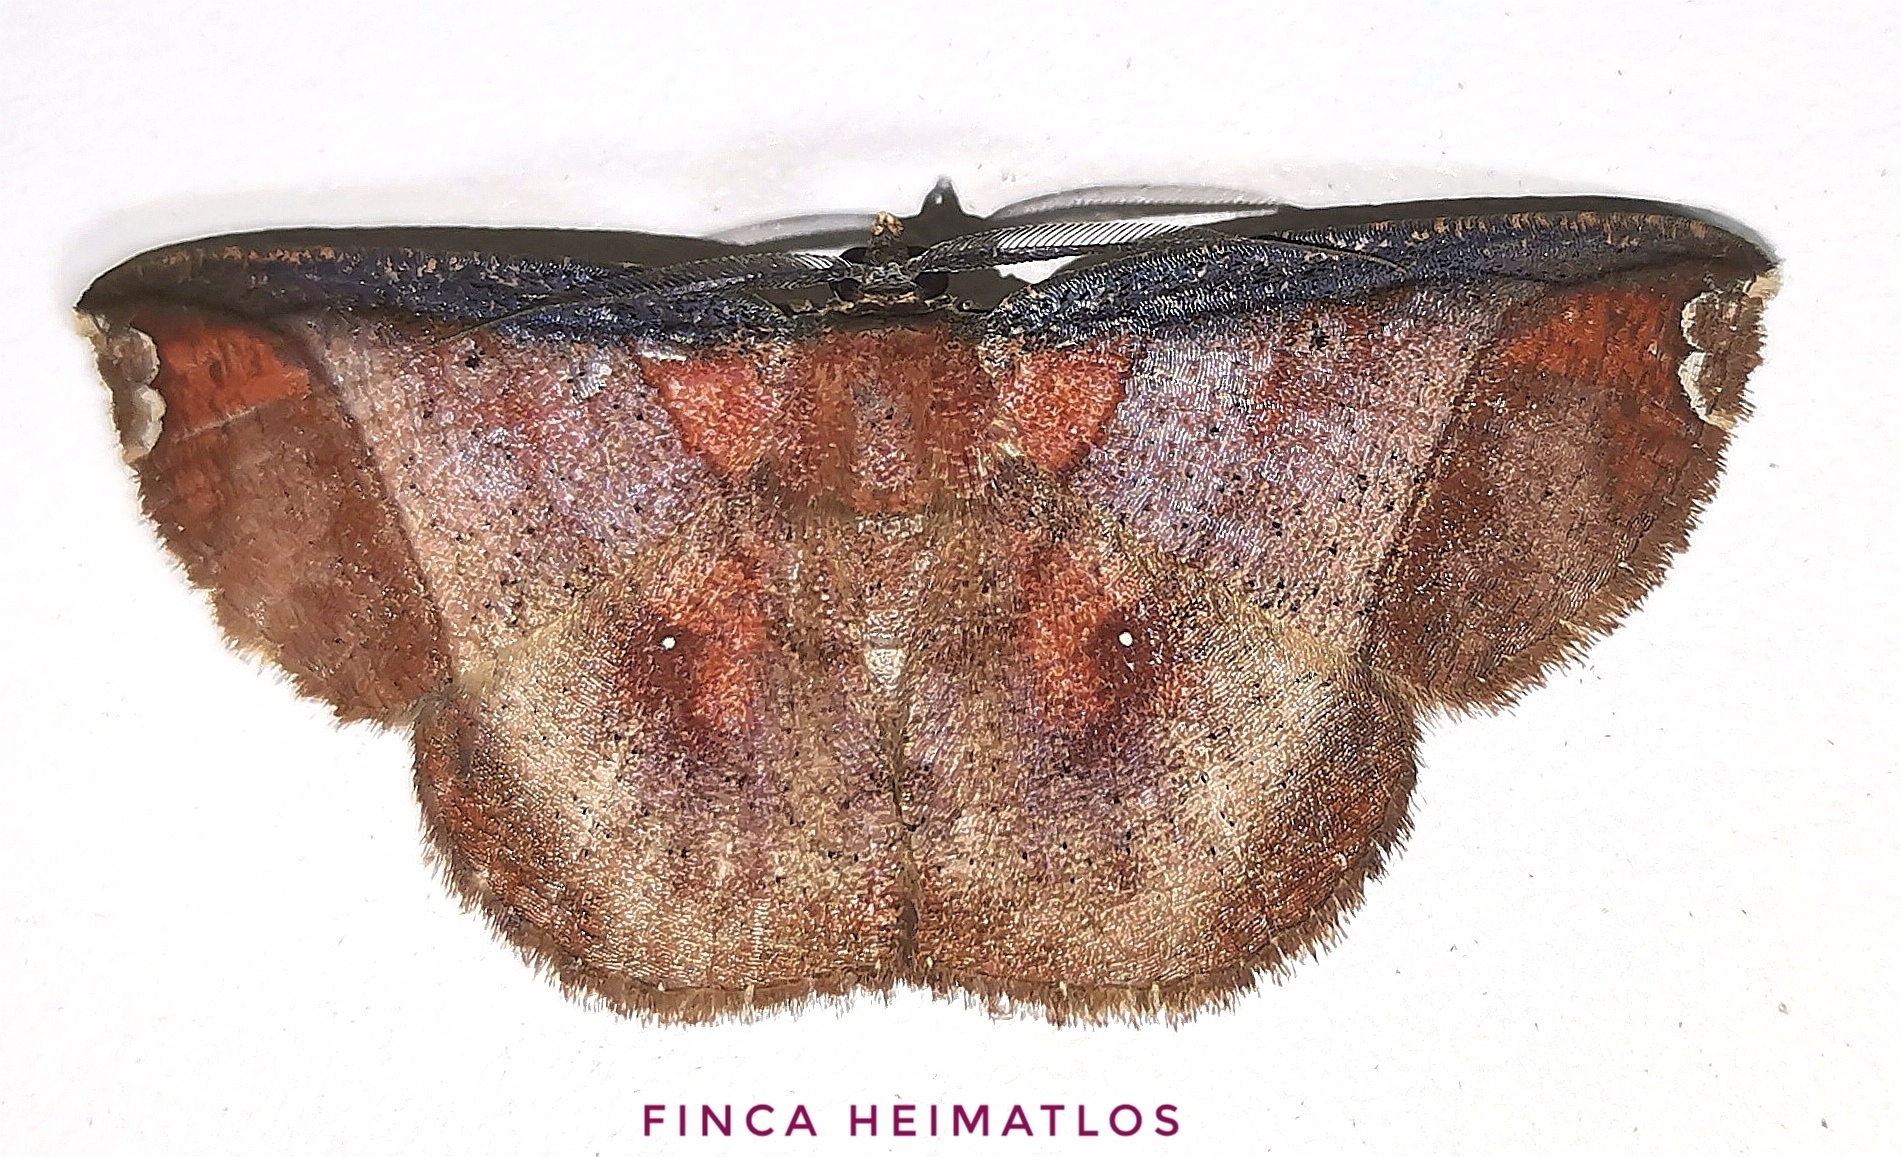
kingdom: Animalia
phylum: Arthropoda
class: Insecta
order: Lepidoptera
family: Geometridae
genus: Thysanopyga
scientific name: Thysanopyga abdominaria
